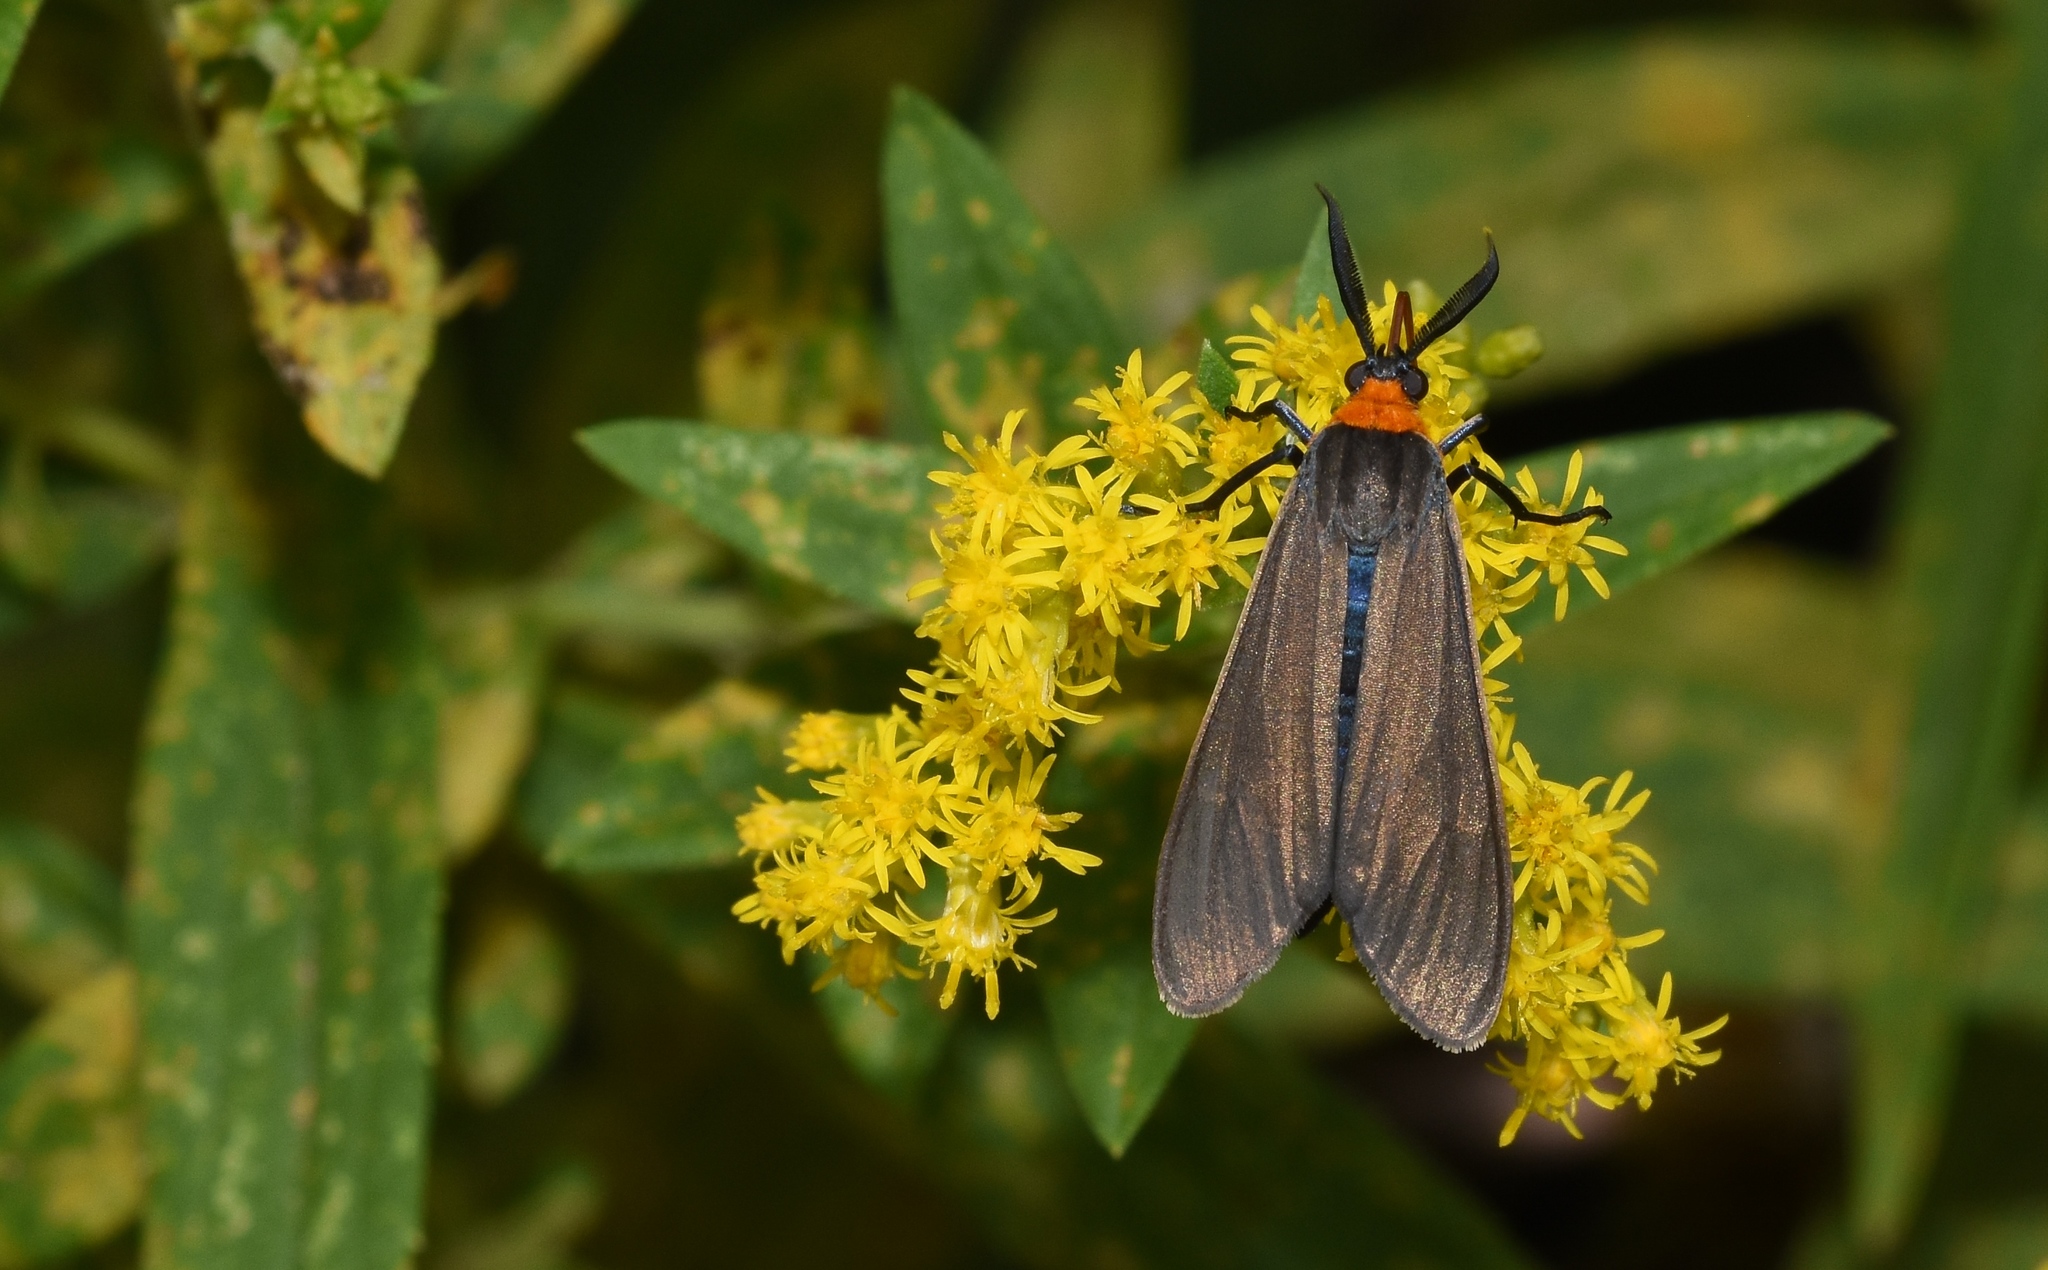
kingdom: Animalia
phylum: Arthropoda
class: Insecta
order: Lepidoptera
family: Erebidae
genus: Cisseps
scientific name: Cisseps fulvicollis
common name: Yellow-collared scape moth
